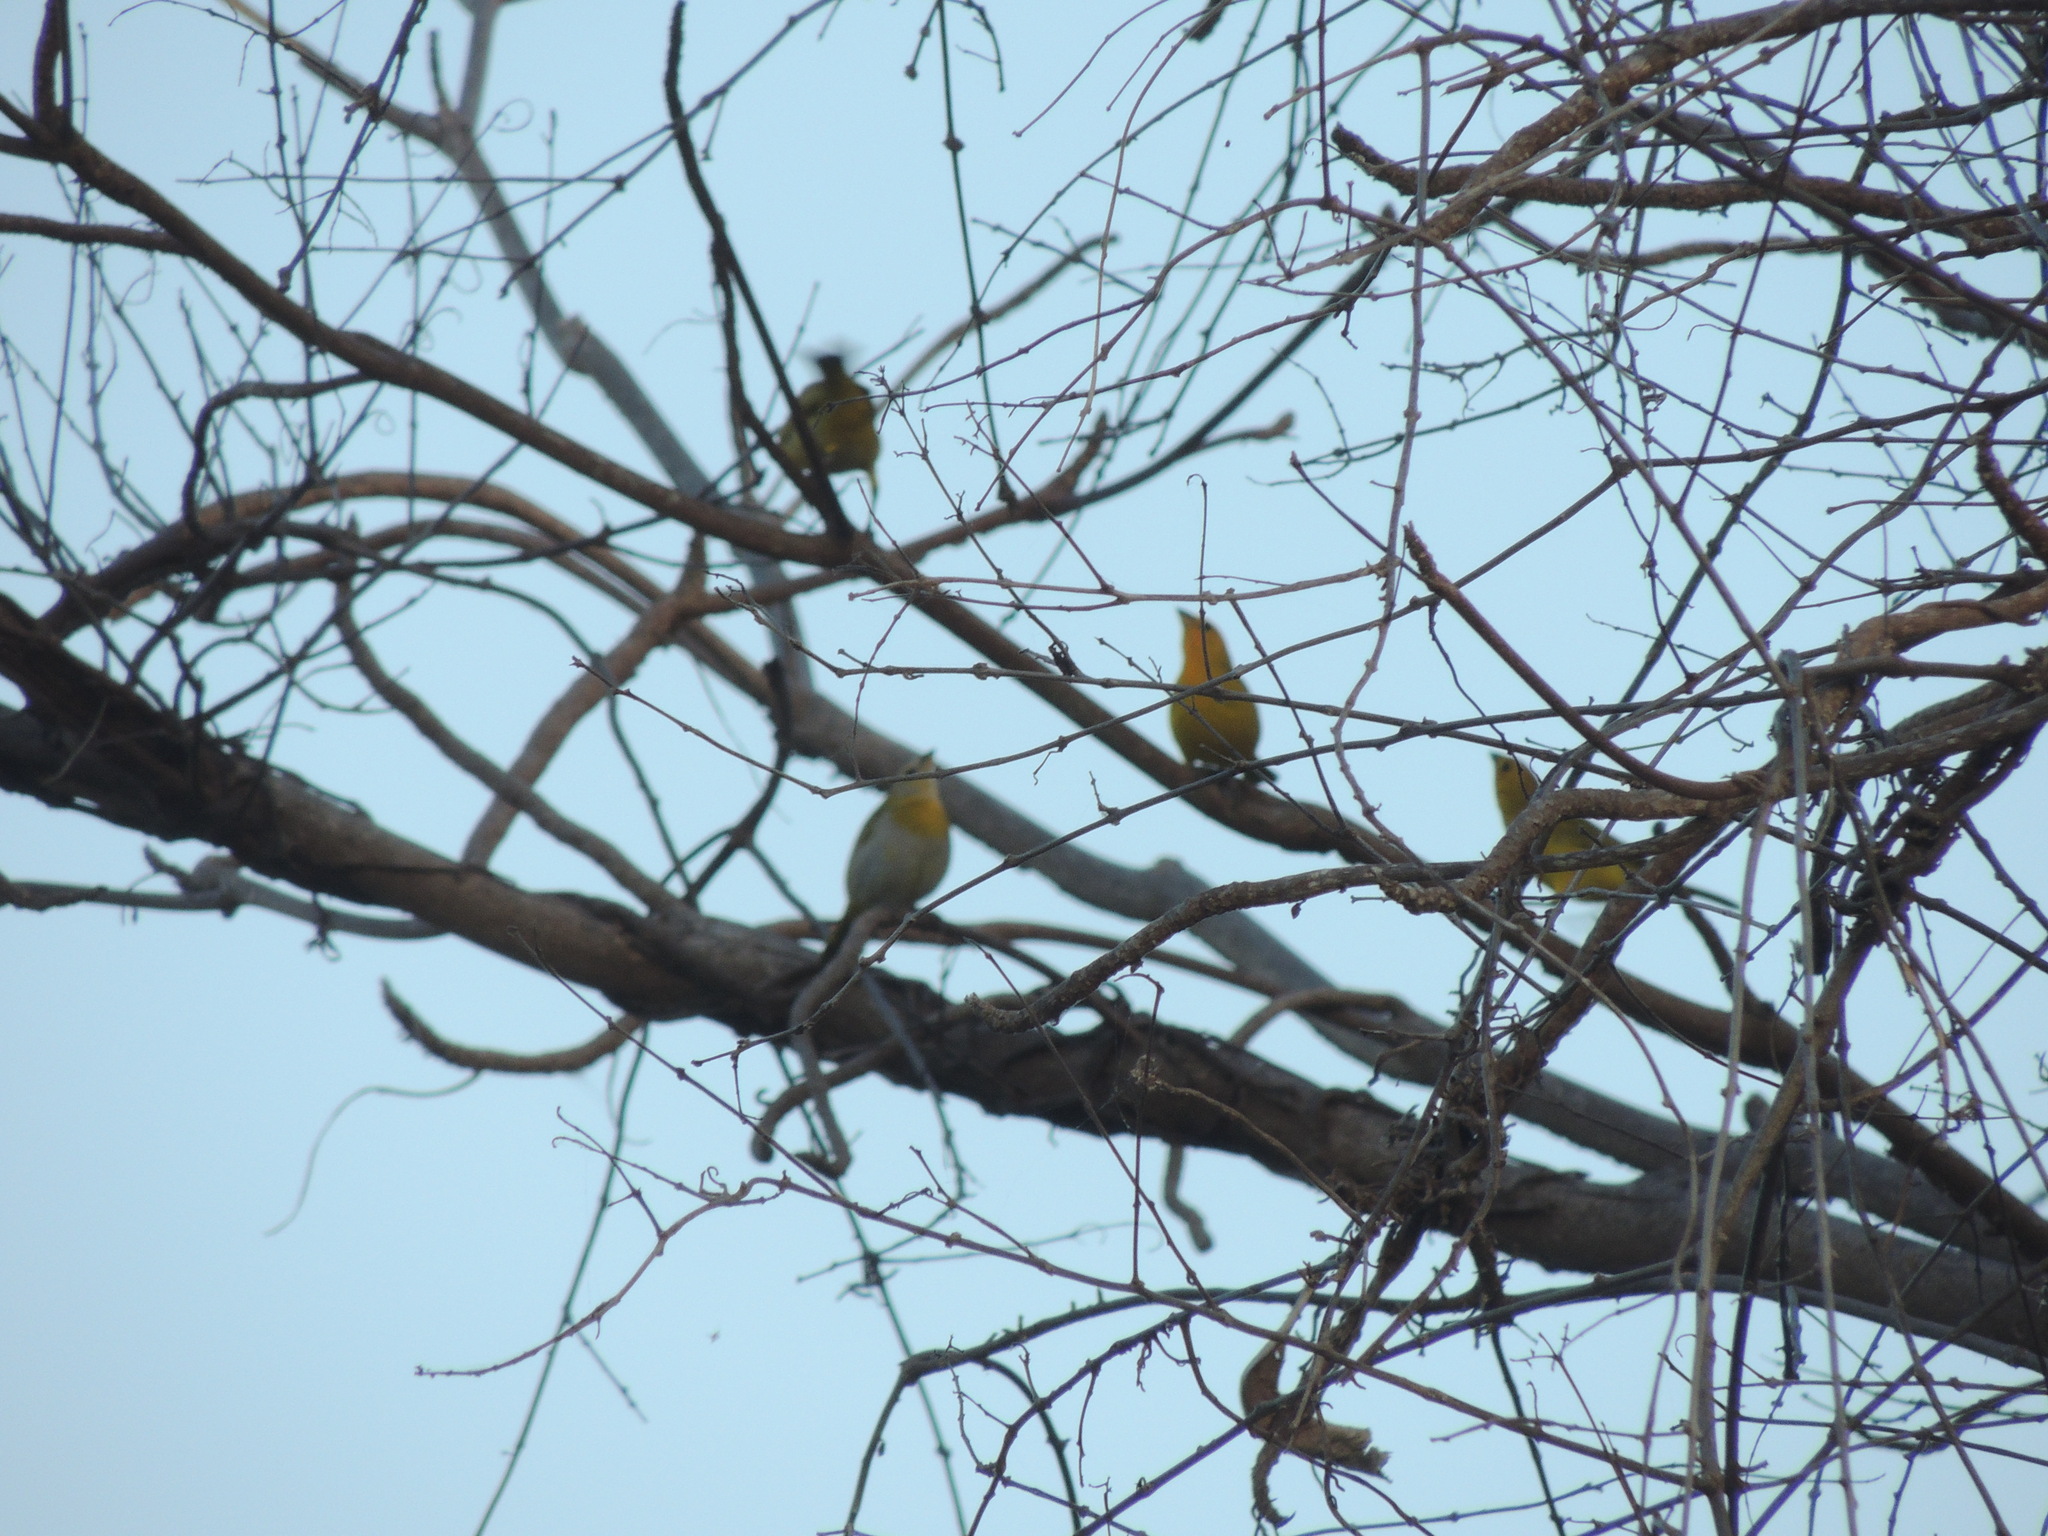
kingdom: Animalia
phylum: Chordata
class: Aves
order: Passeriformes
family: Thraupidae
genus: Sicalis
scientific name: Sicalis flaveola
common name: Saffron finch
